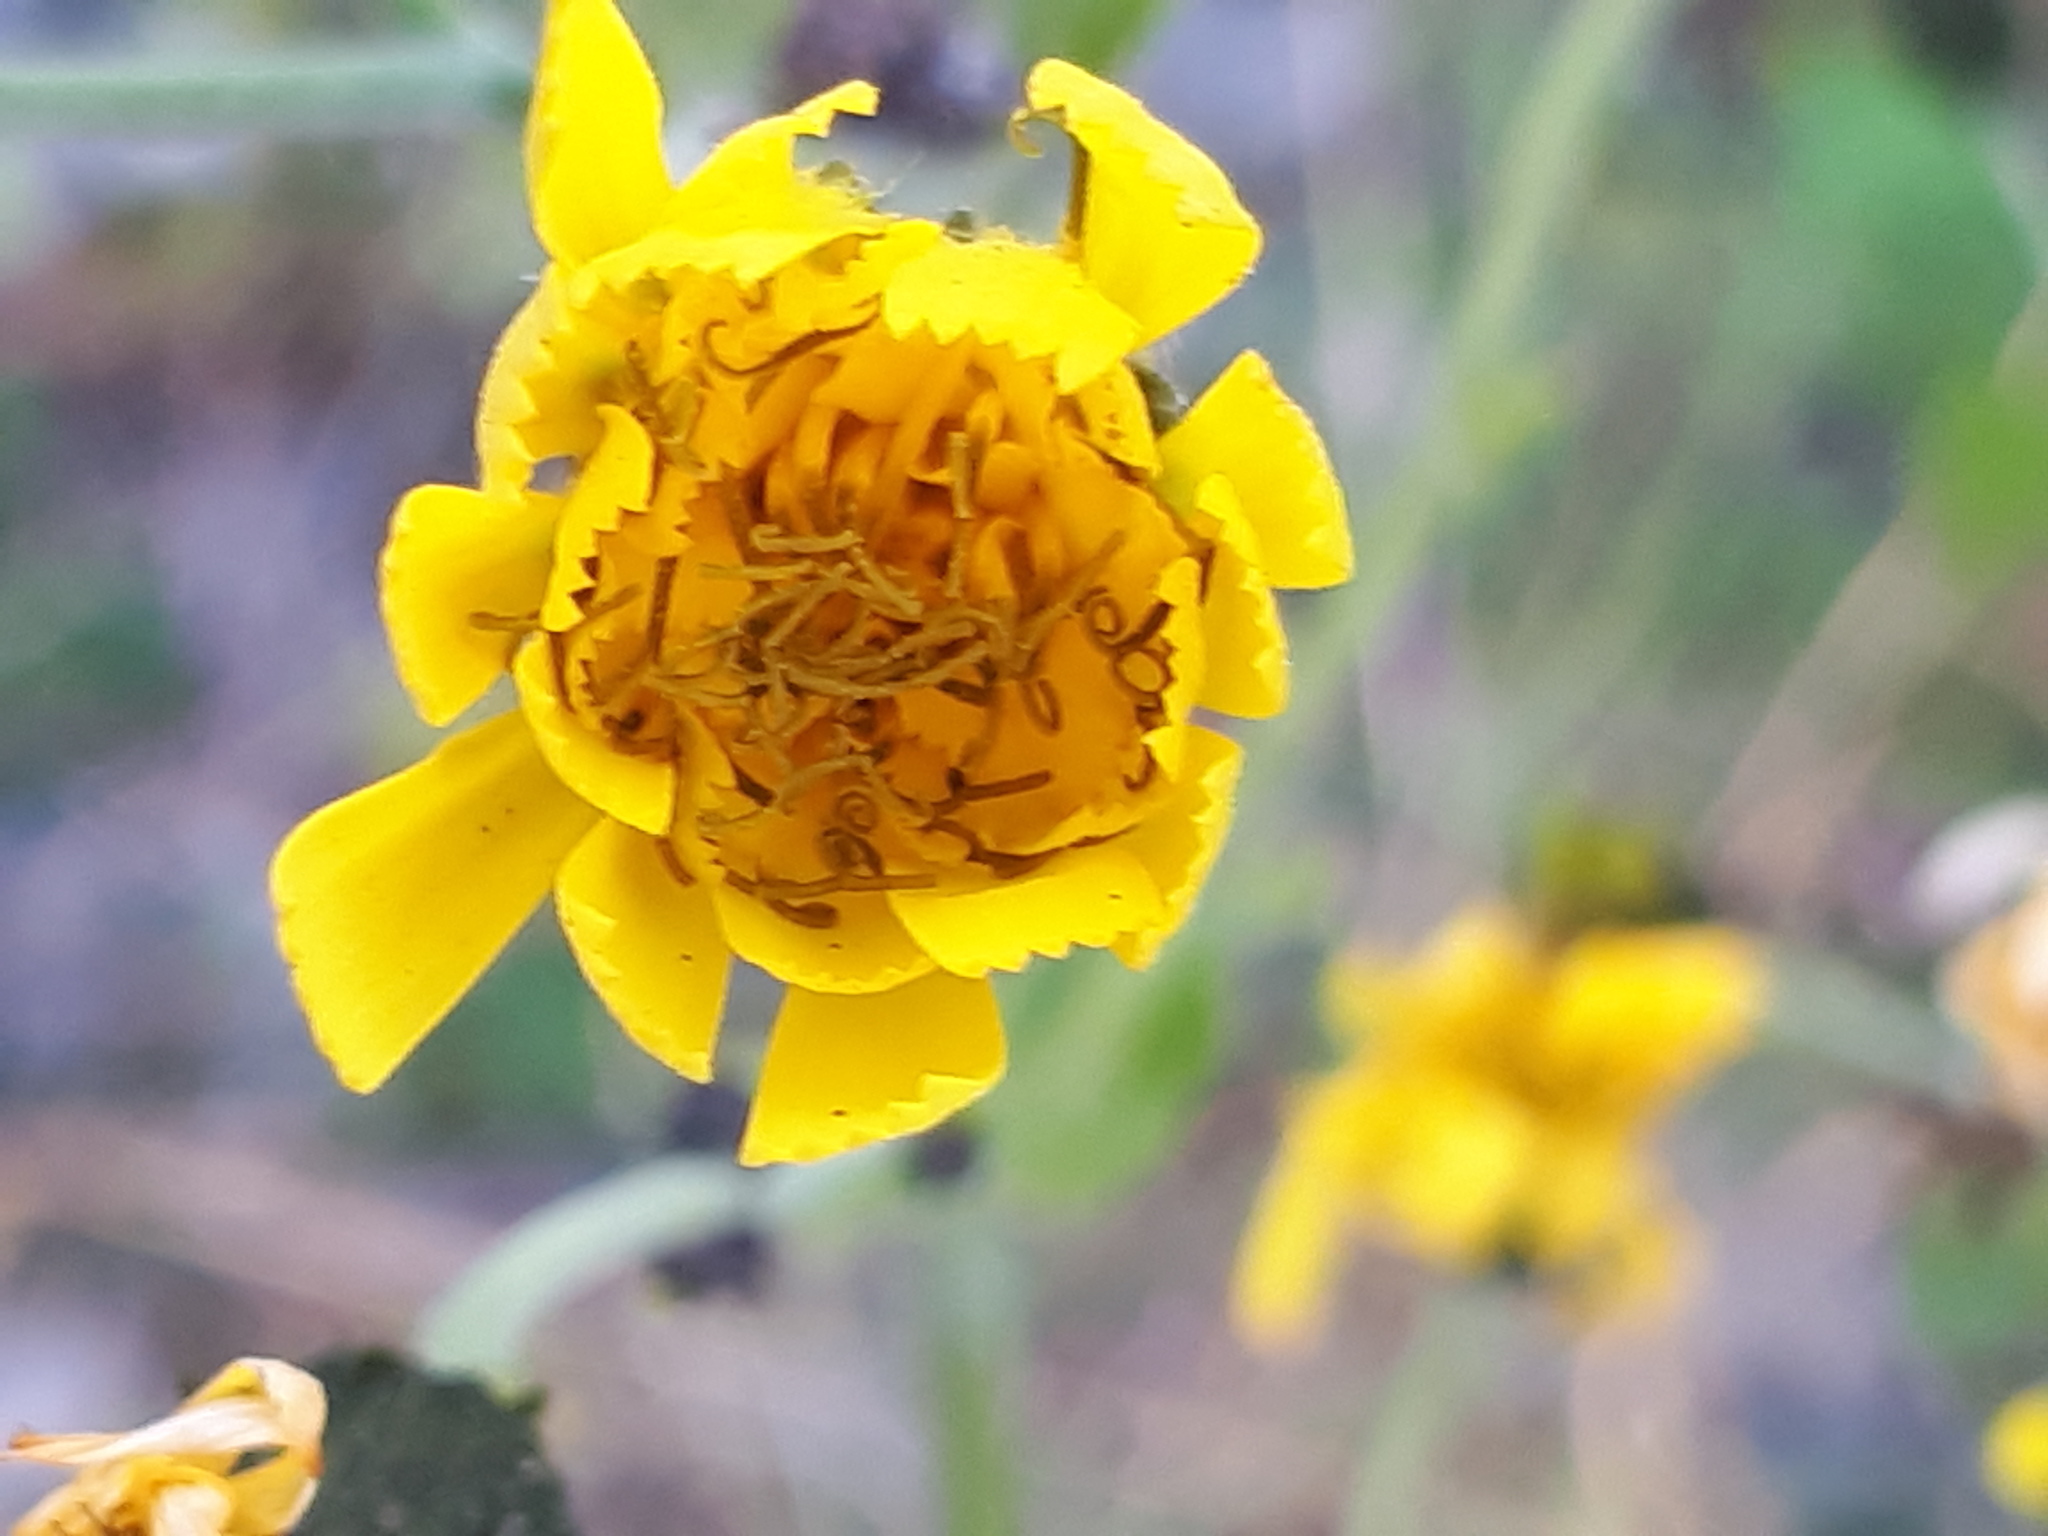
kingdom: Plantae
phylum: Tracheophyta
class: Magnoliopsida
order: Asterales
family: Asteraceae
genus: Hieracium
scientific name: Hieracium sabaudum
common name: New england hawkweed
